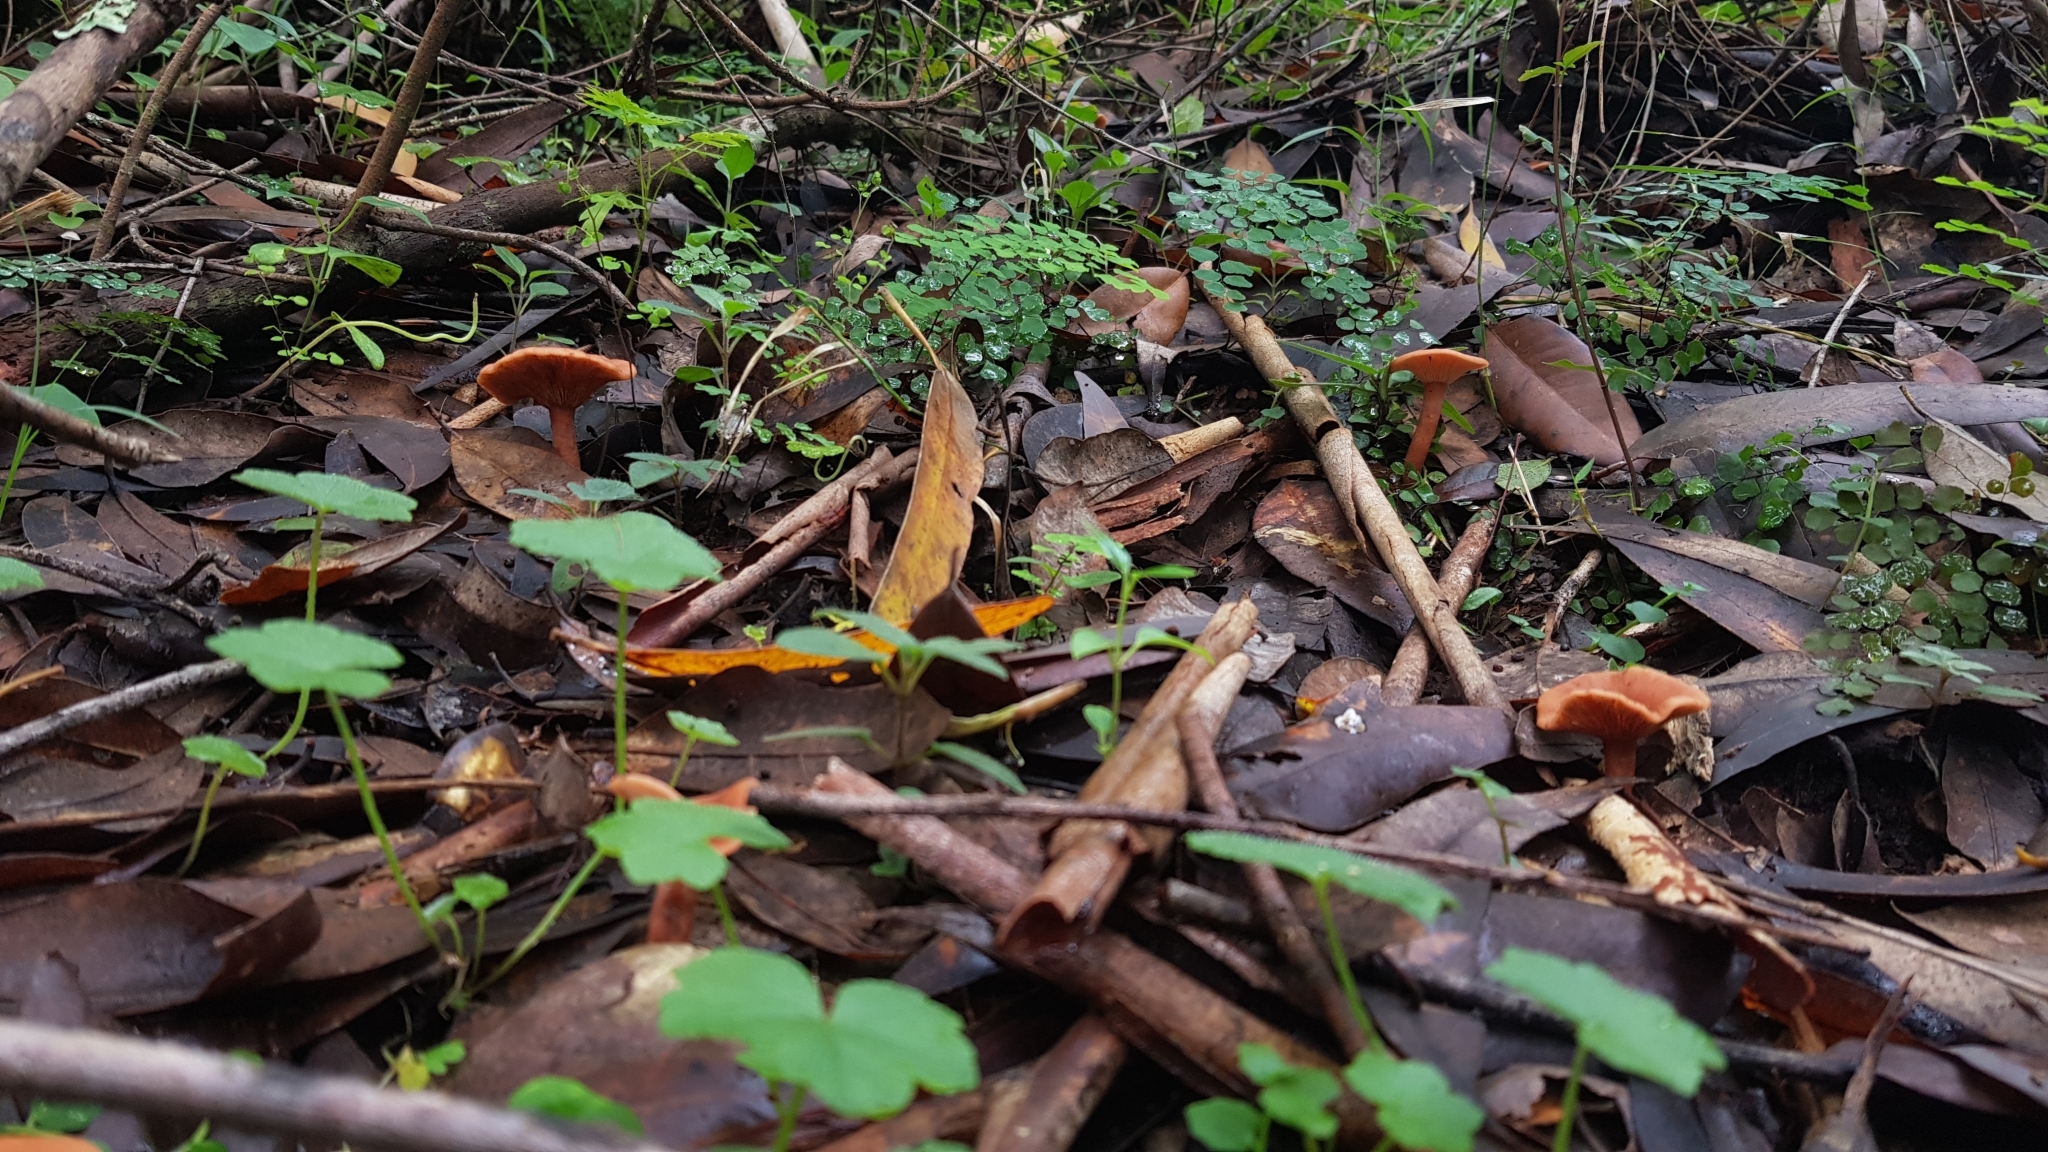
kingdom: Fungi
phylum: Basidiomycota
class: Agaricomycetes
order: Russulales
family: Russulaceae
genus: Lactarius
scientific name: Lactarius eucalypti
